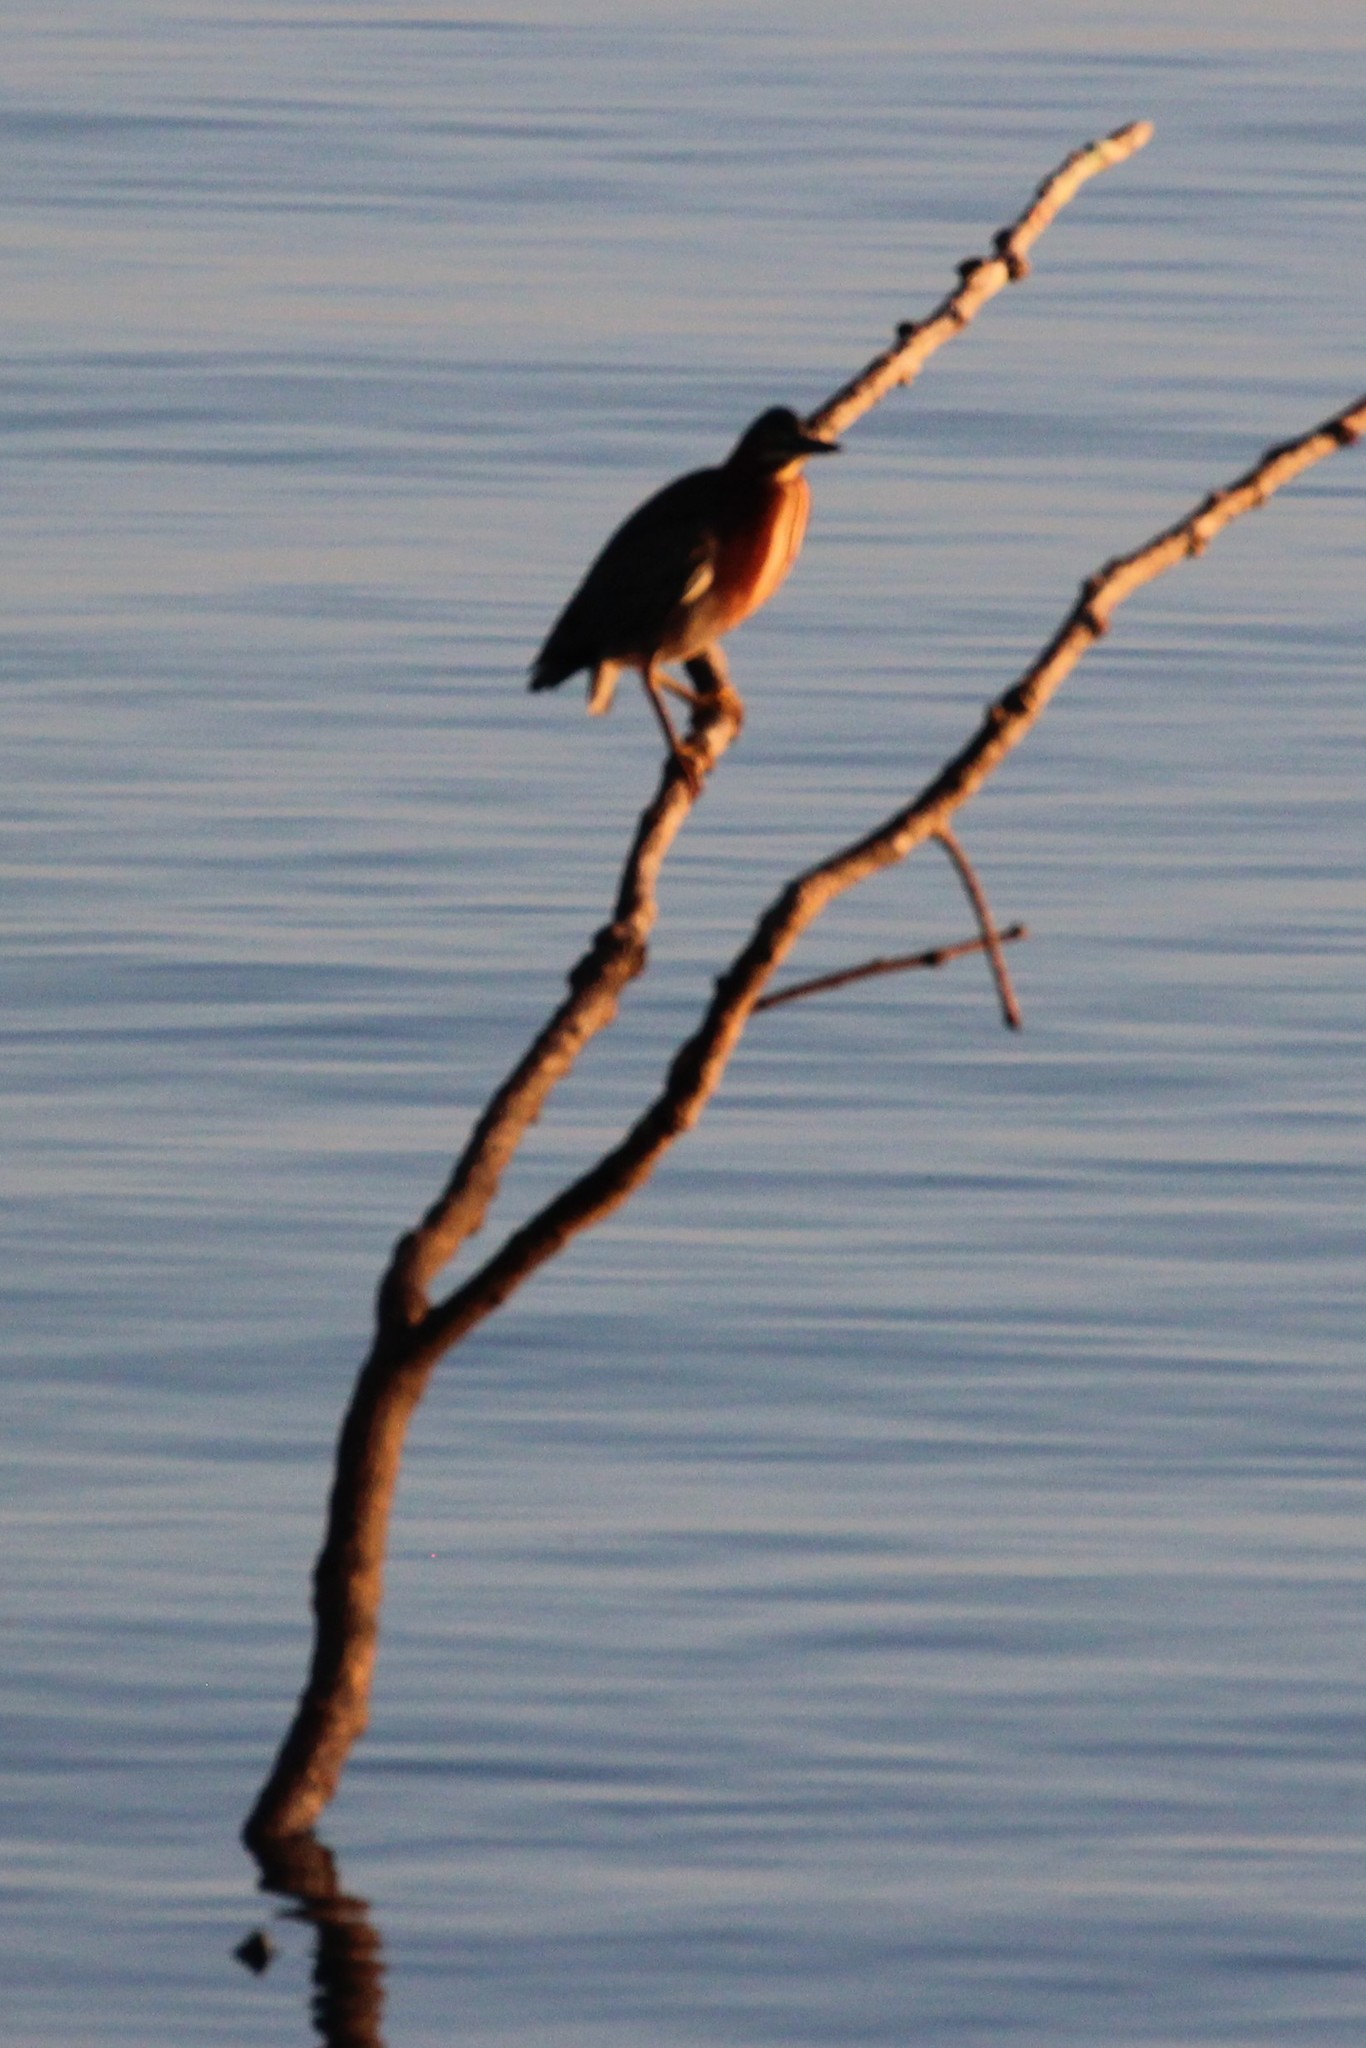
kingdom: Animalia
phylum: Chordata
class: Aves
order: Pelecaniformes
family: Ardeidae
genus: Butorides
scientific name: Butorides virescens
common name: Green heron
